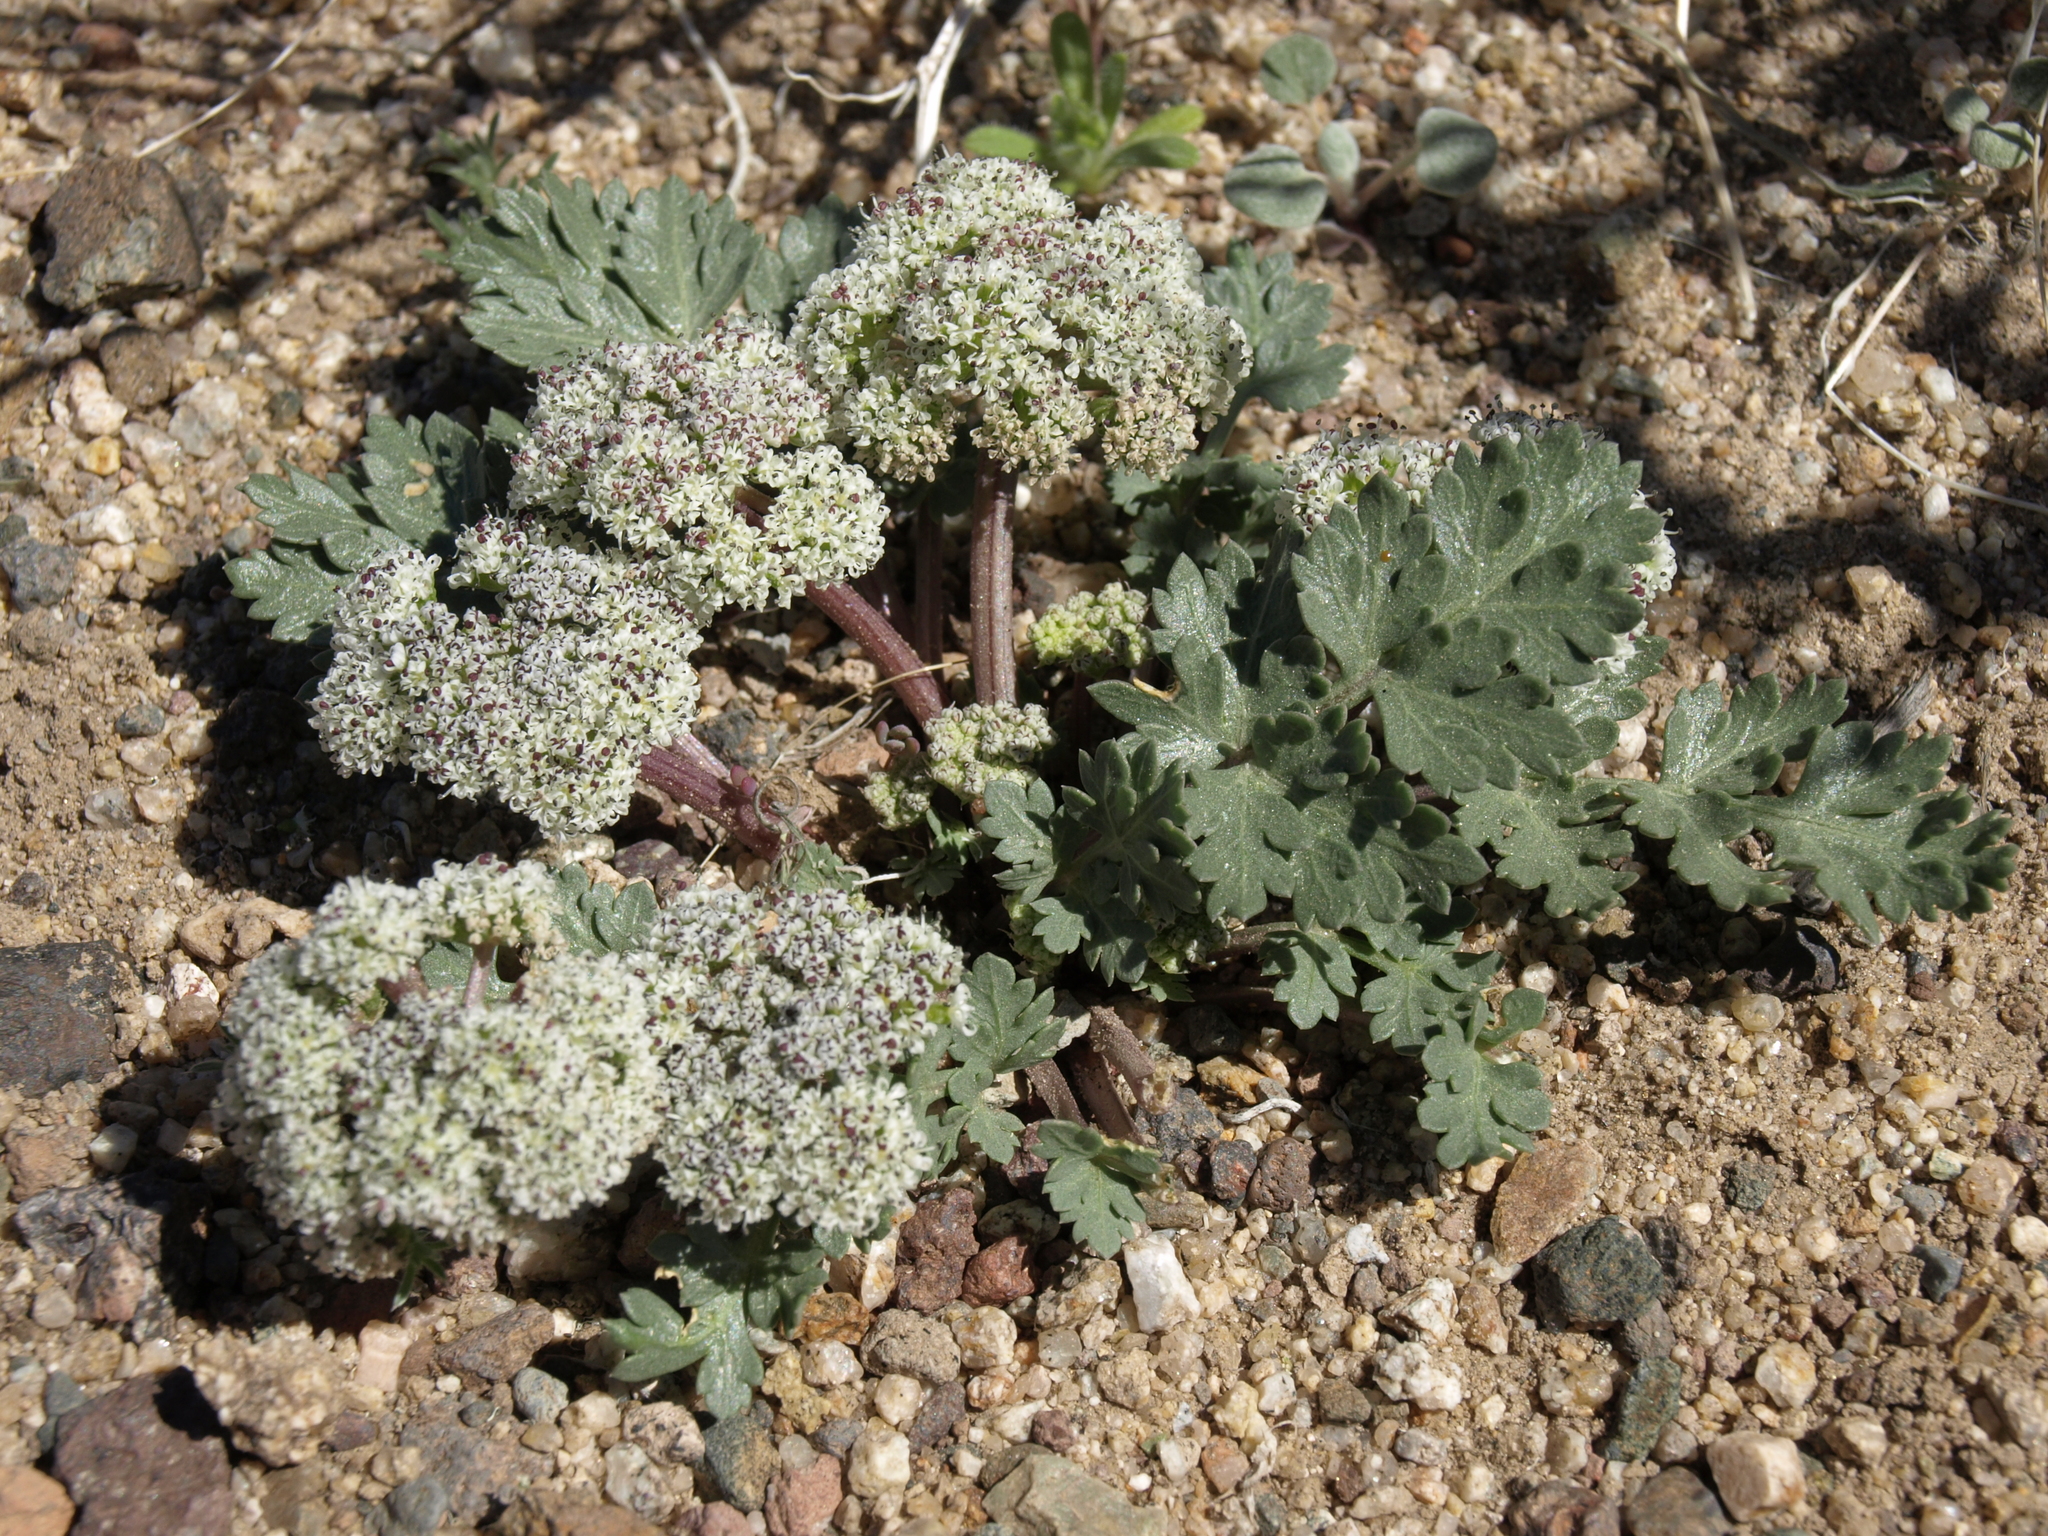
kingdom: Plantae
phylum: Tracheophyta
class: Magnoliopsida
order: Apiales
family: Apiaceae
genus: Rhysopterus
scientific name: Rhysopterus plurijugus
